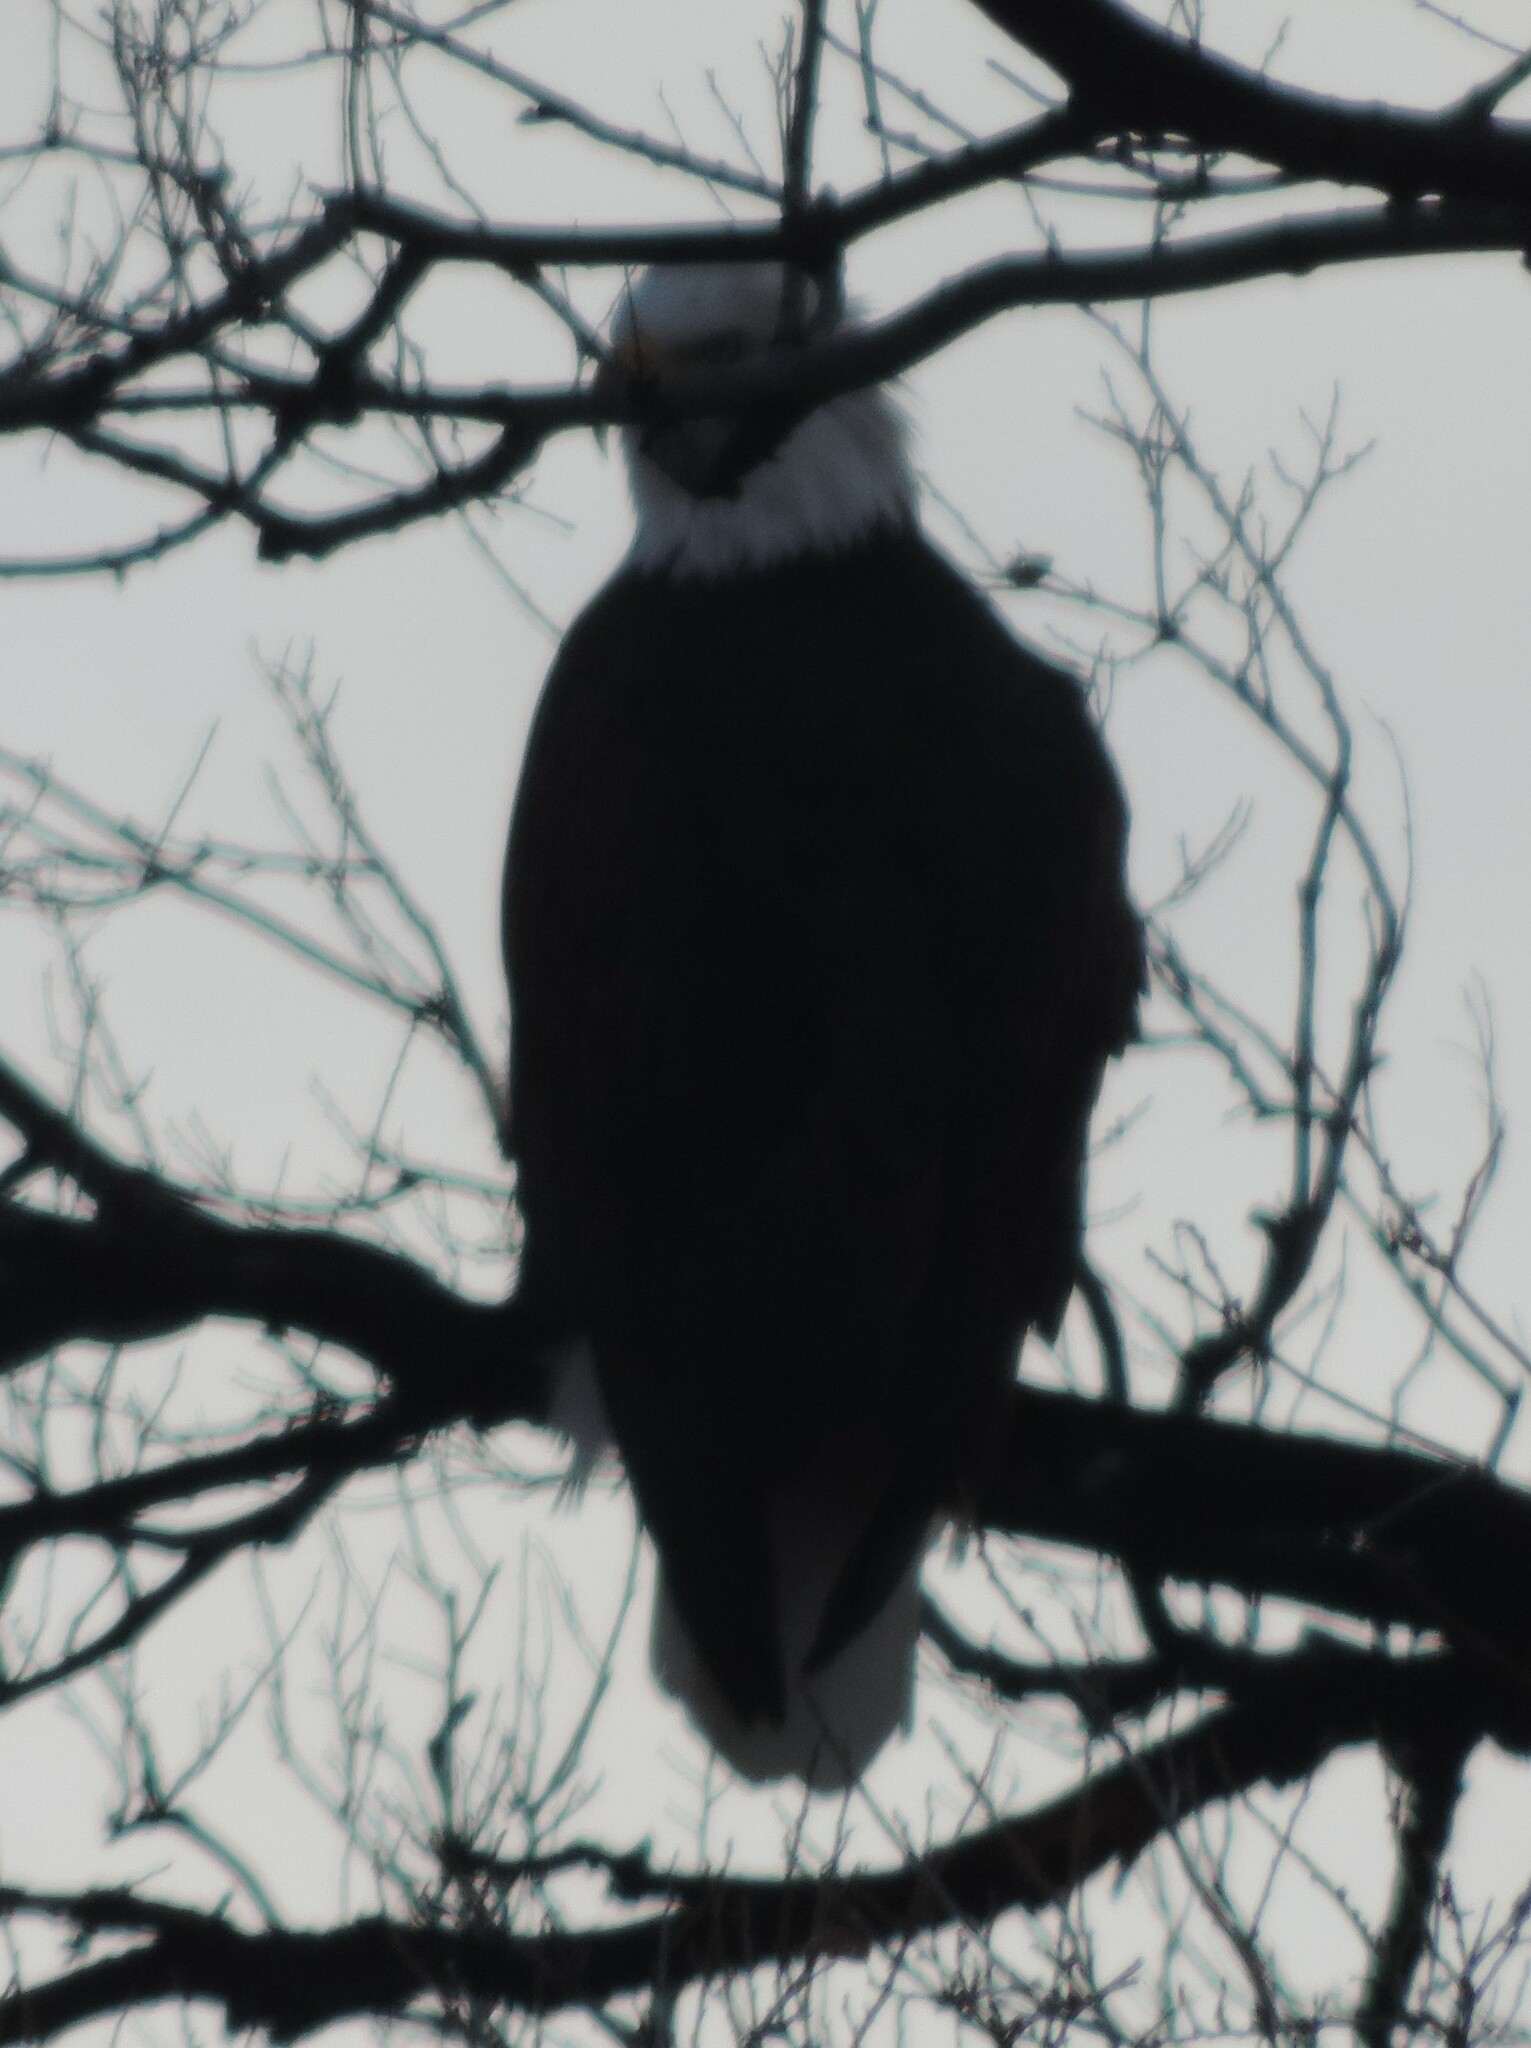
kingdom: Animalia
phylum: Chordata
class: Aves
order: Accipitriformes
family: Accipitridae
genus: Haliaeetus
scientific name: Haliaeetus leucocephalus
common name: Bald eagle
